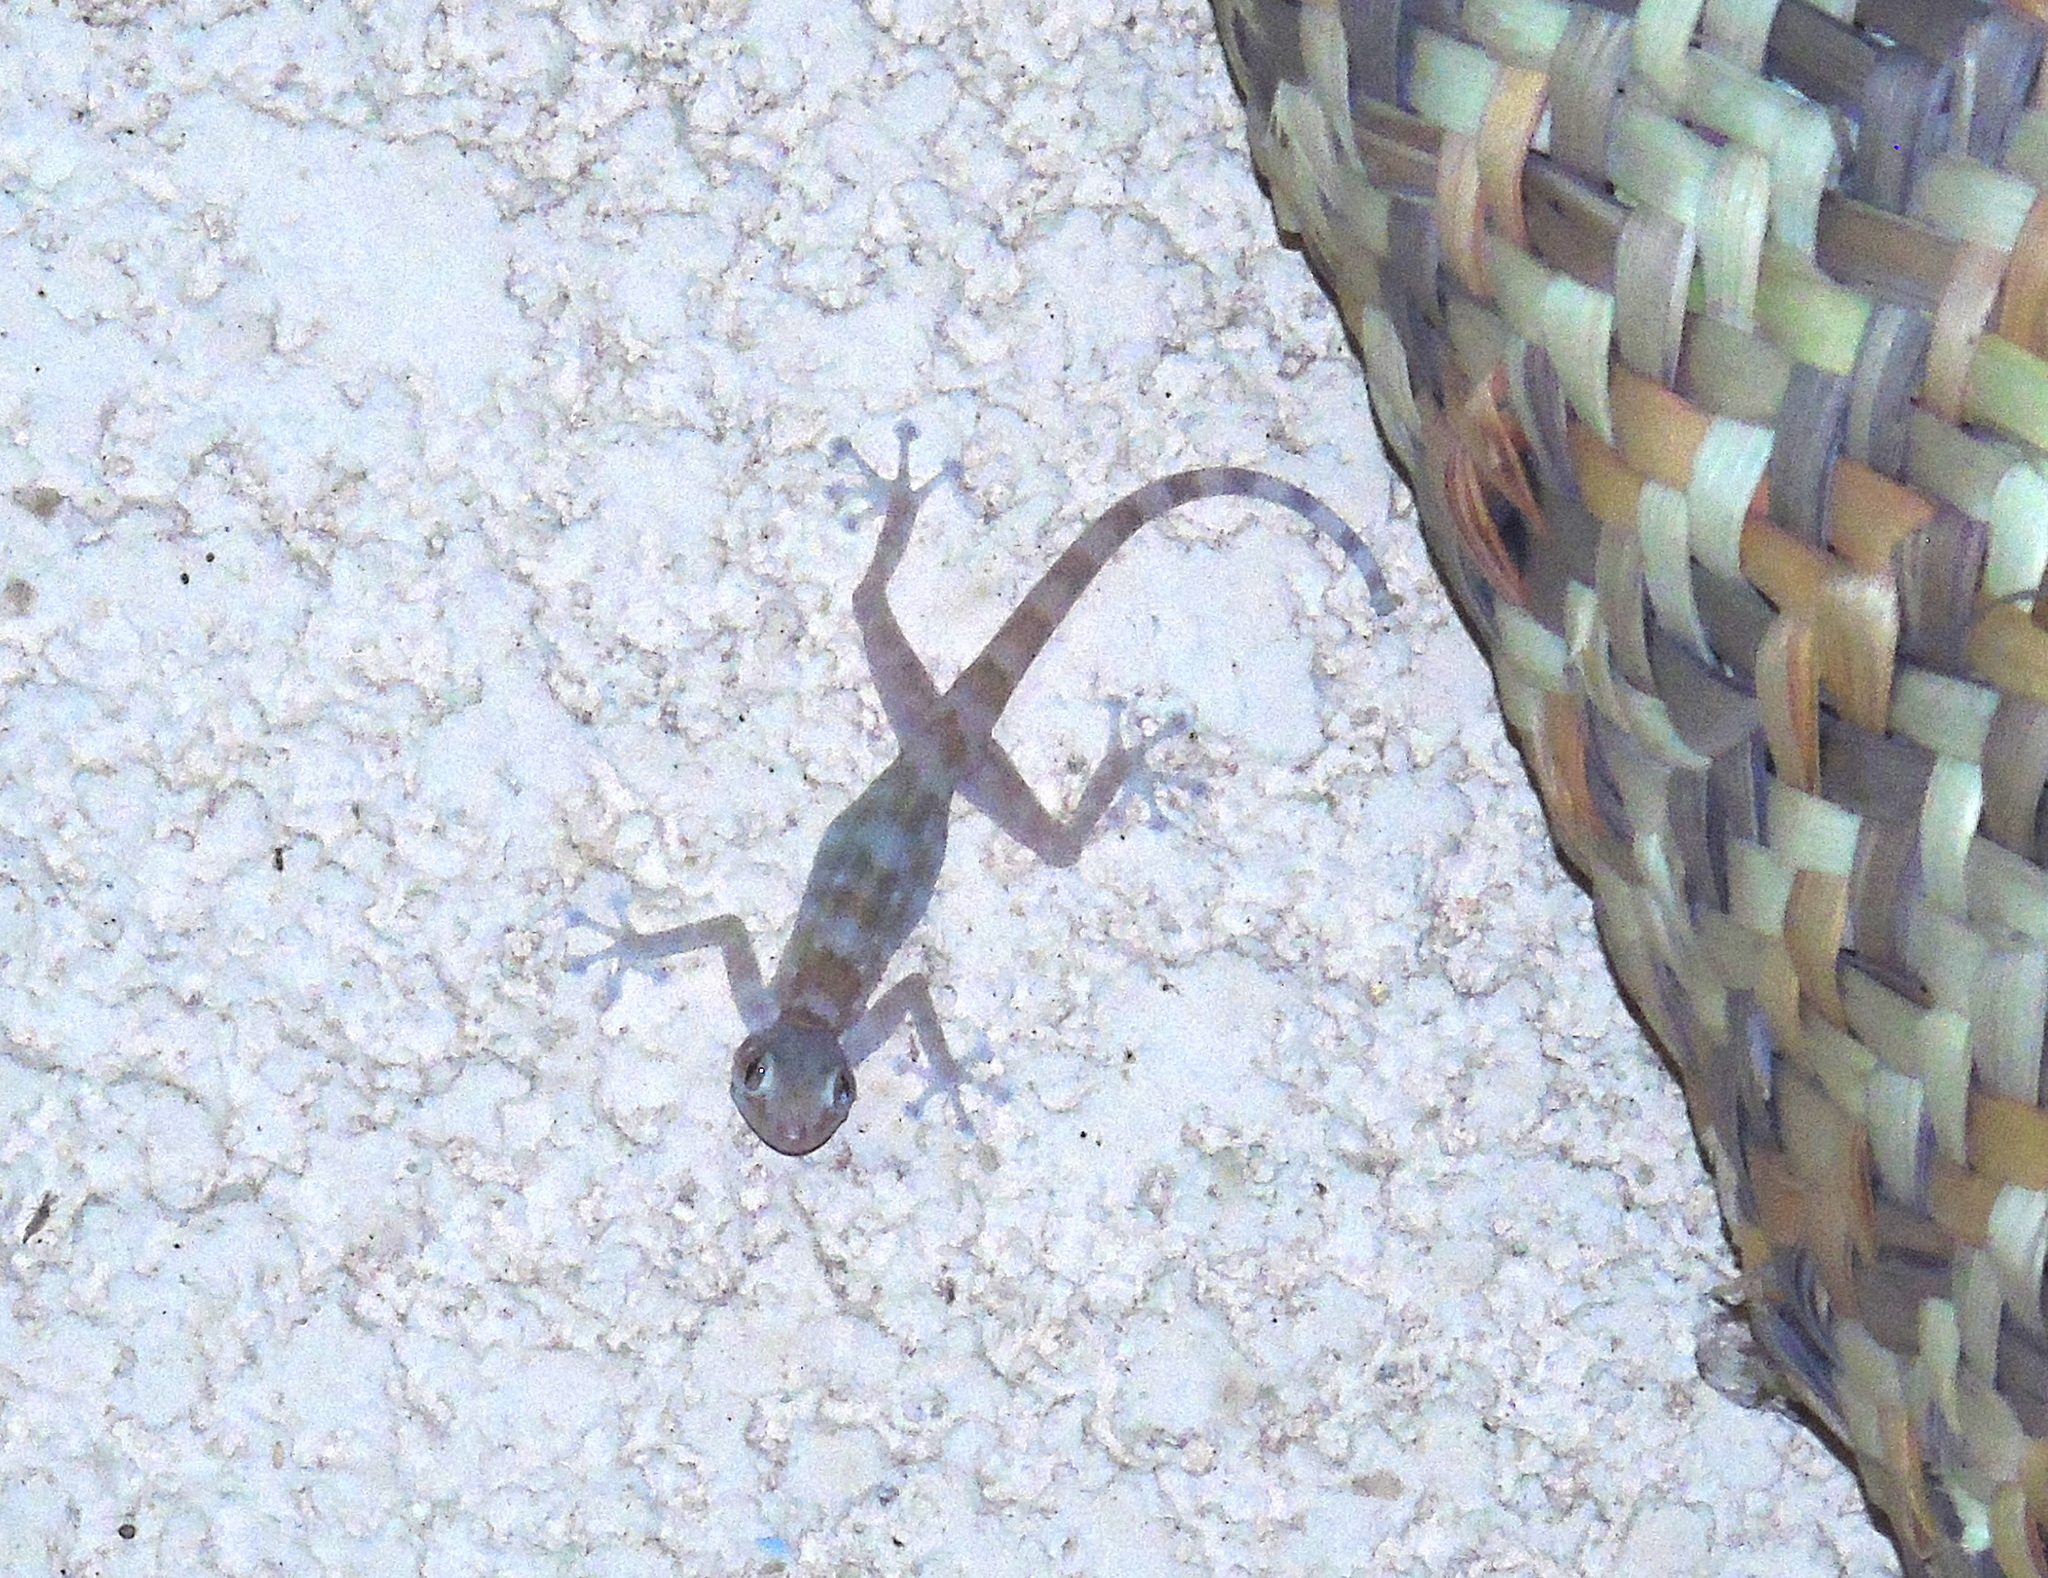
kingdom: Animalia
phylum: Chordata
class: Squamata
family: Phyllodactylidae
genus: Ptyodactylus
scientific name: Ptyodactylus hasselquistii
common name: Hasselquist’s fan-footed gecko
